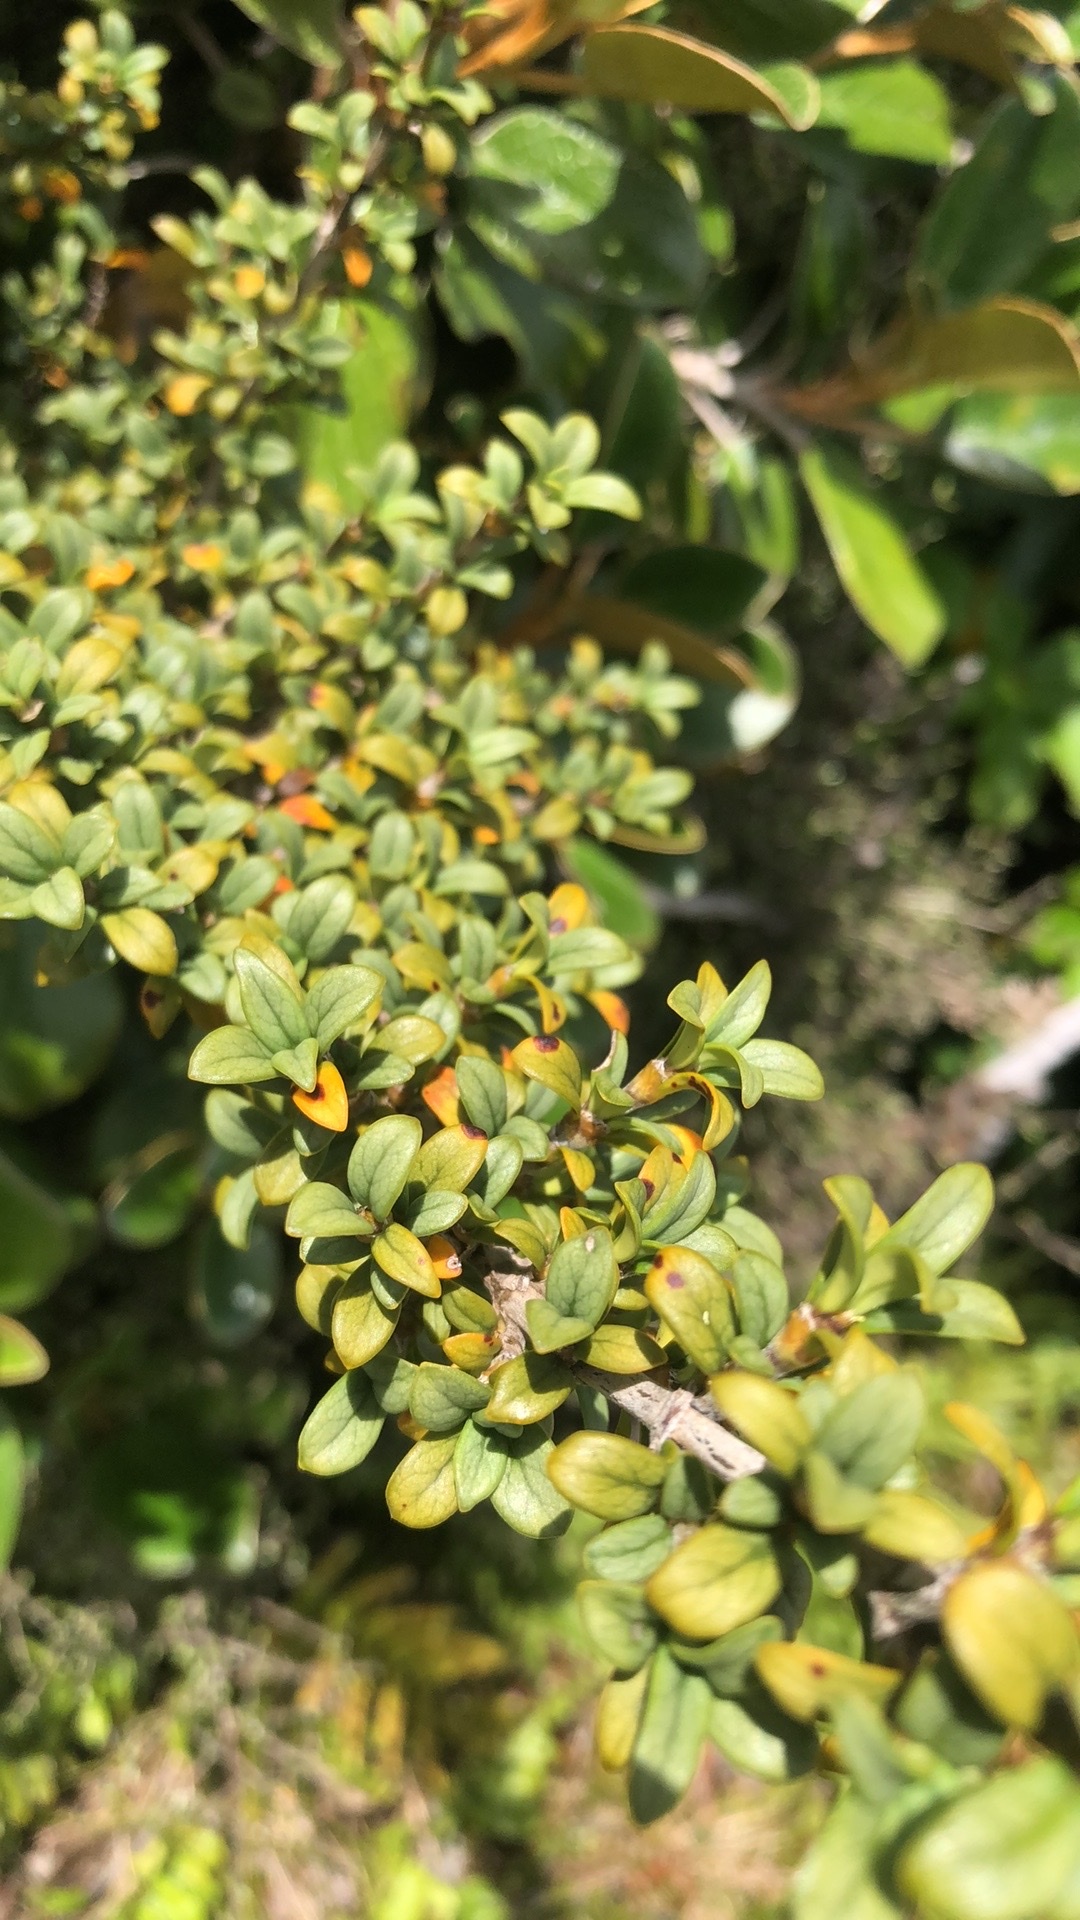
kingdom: Plantae
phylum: Tracheophyta
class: Magnoliopsida
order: Gentianales
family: Rubiaceae
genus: Coprosma
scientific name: Coprosma pseudocuneata
